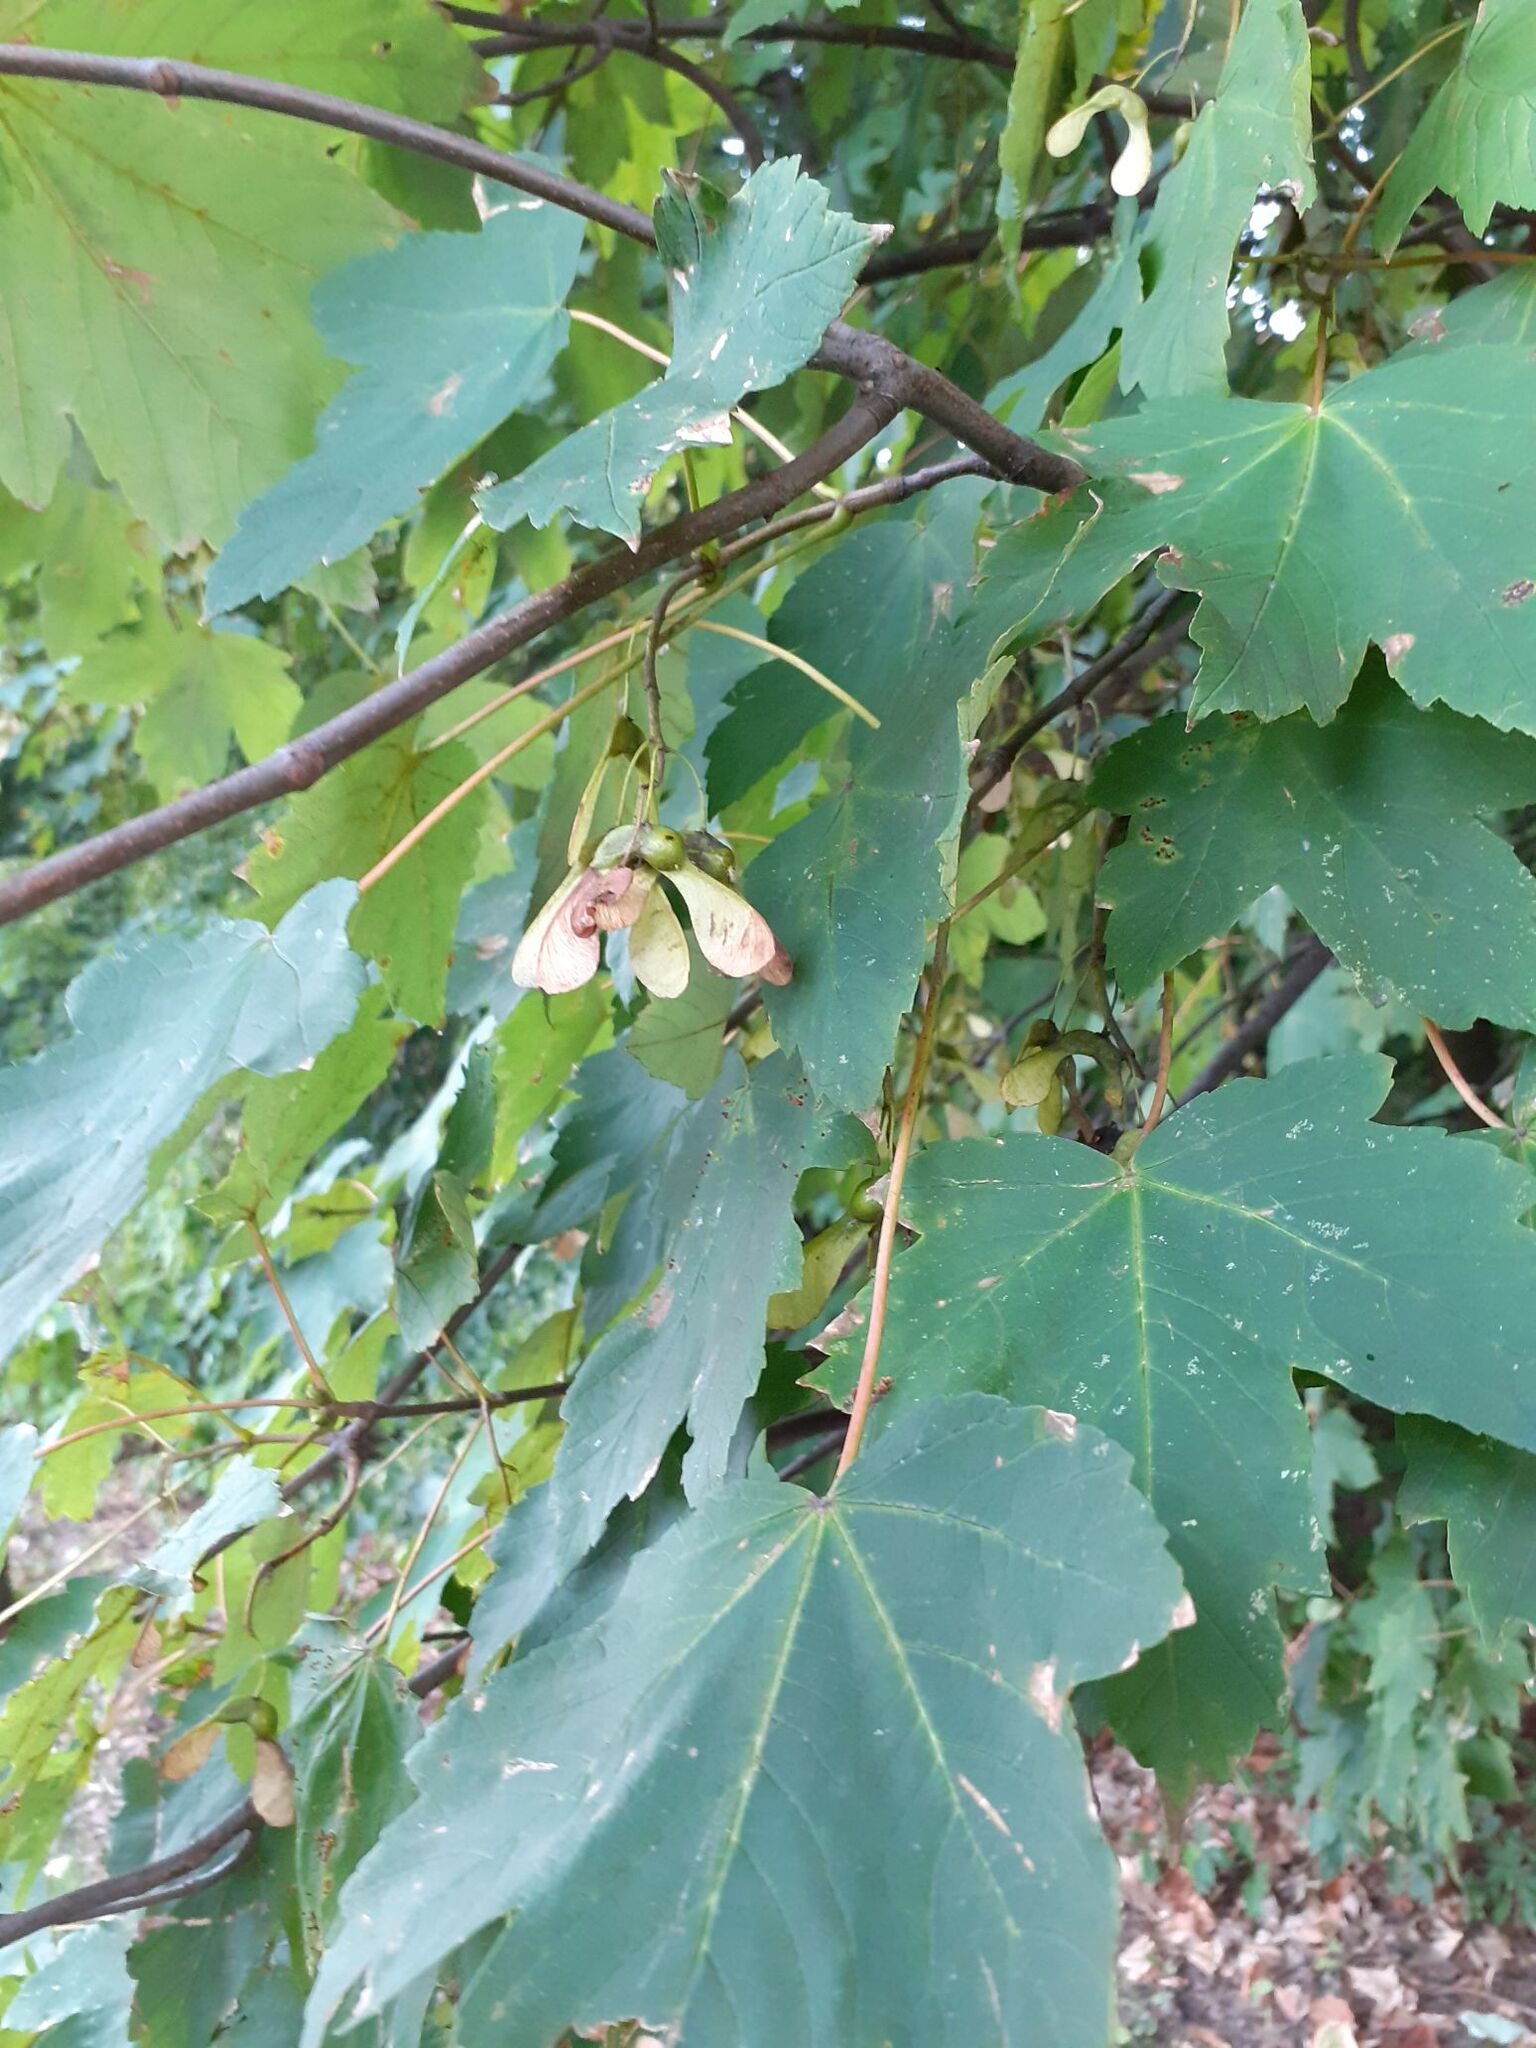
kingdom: Plantae
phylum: Tracheophyta
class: Magnoliopsida
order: Sapindales
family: Sapindaceae
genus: Acer
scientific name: Acer pseudoplatanus
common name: Sycamore
